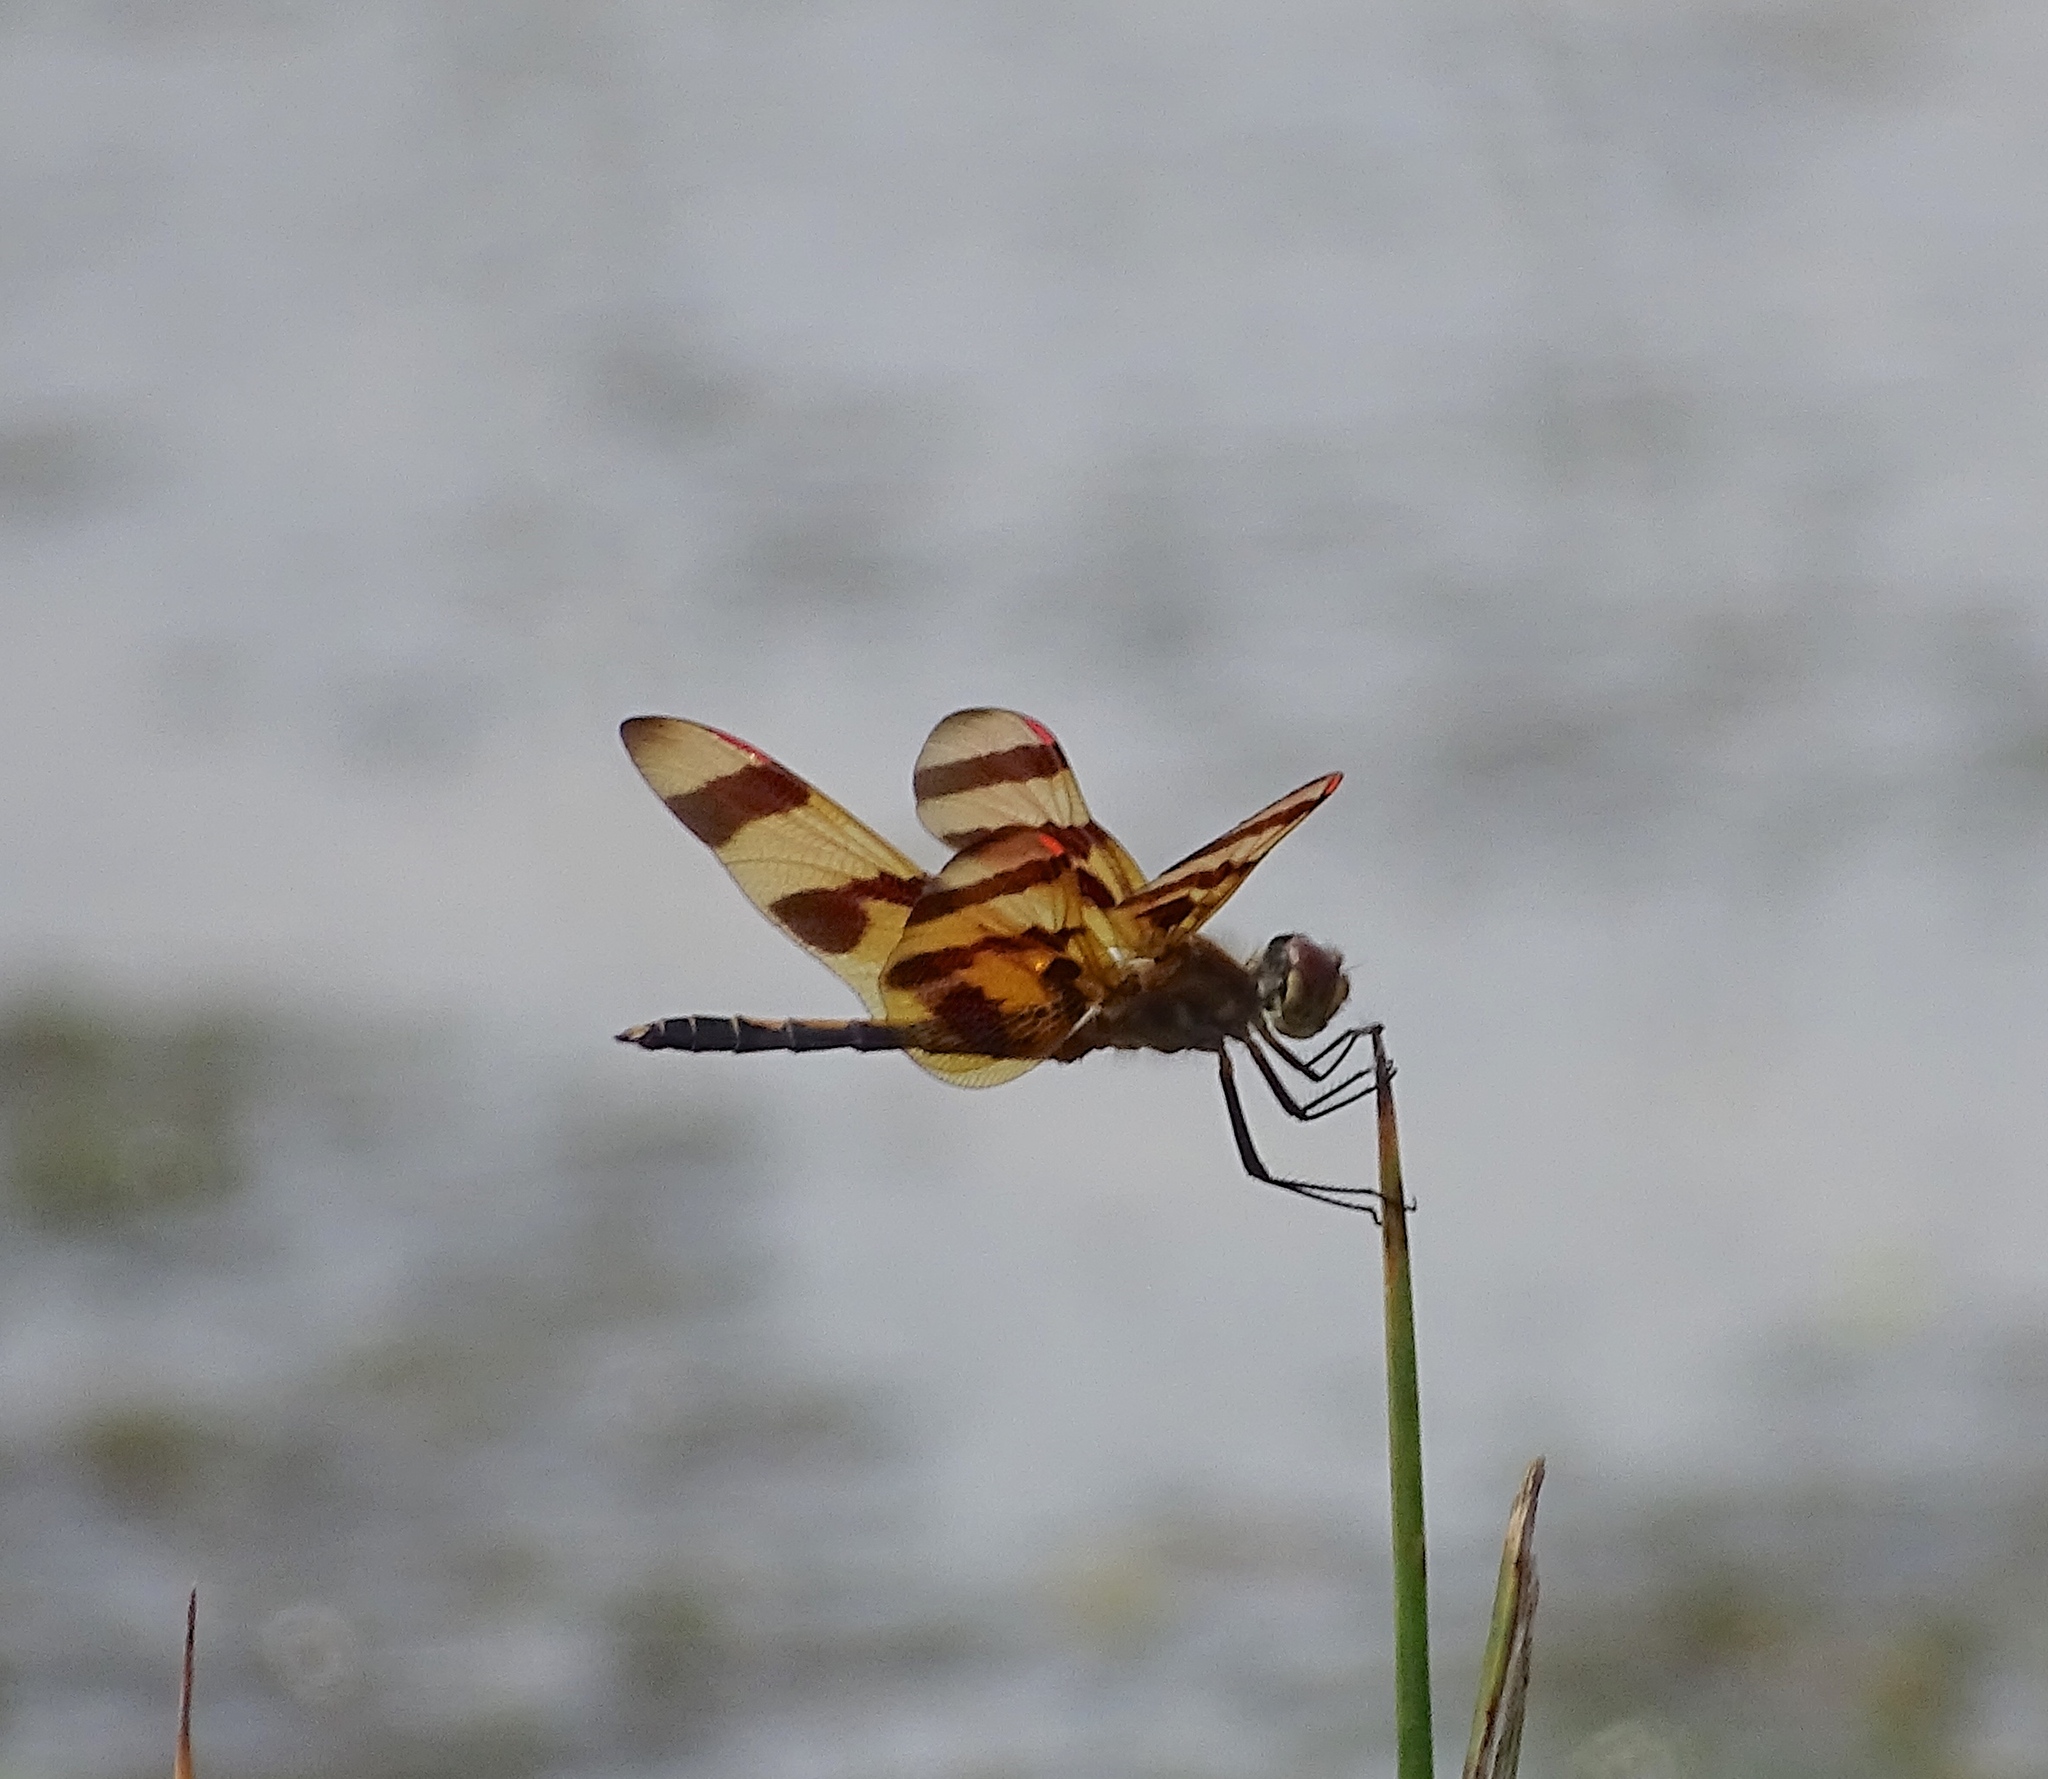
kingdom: Animalia
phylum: Arthropoda
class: Insecta
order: Odonata
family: Libellulidae
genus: Celithemis
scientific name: Celithemis eponina
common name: Halloween pennant
